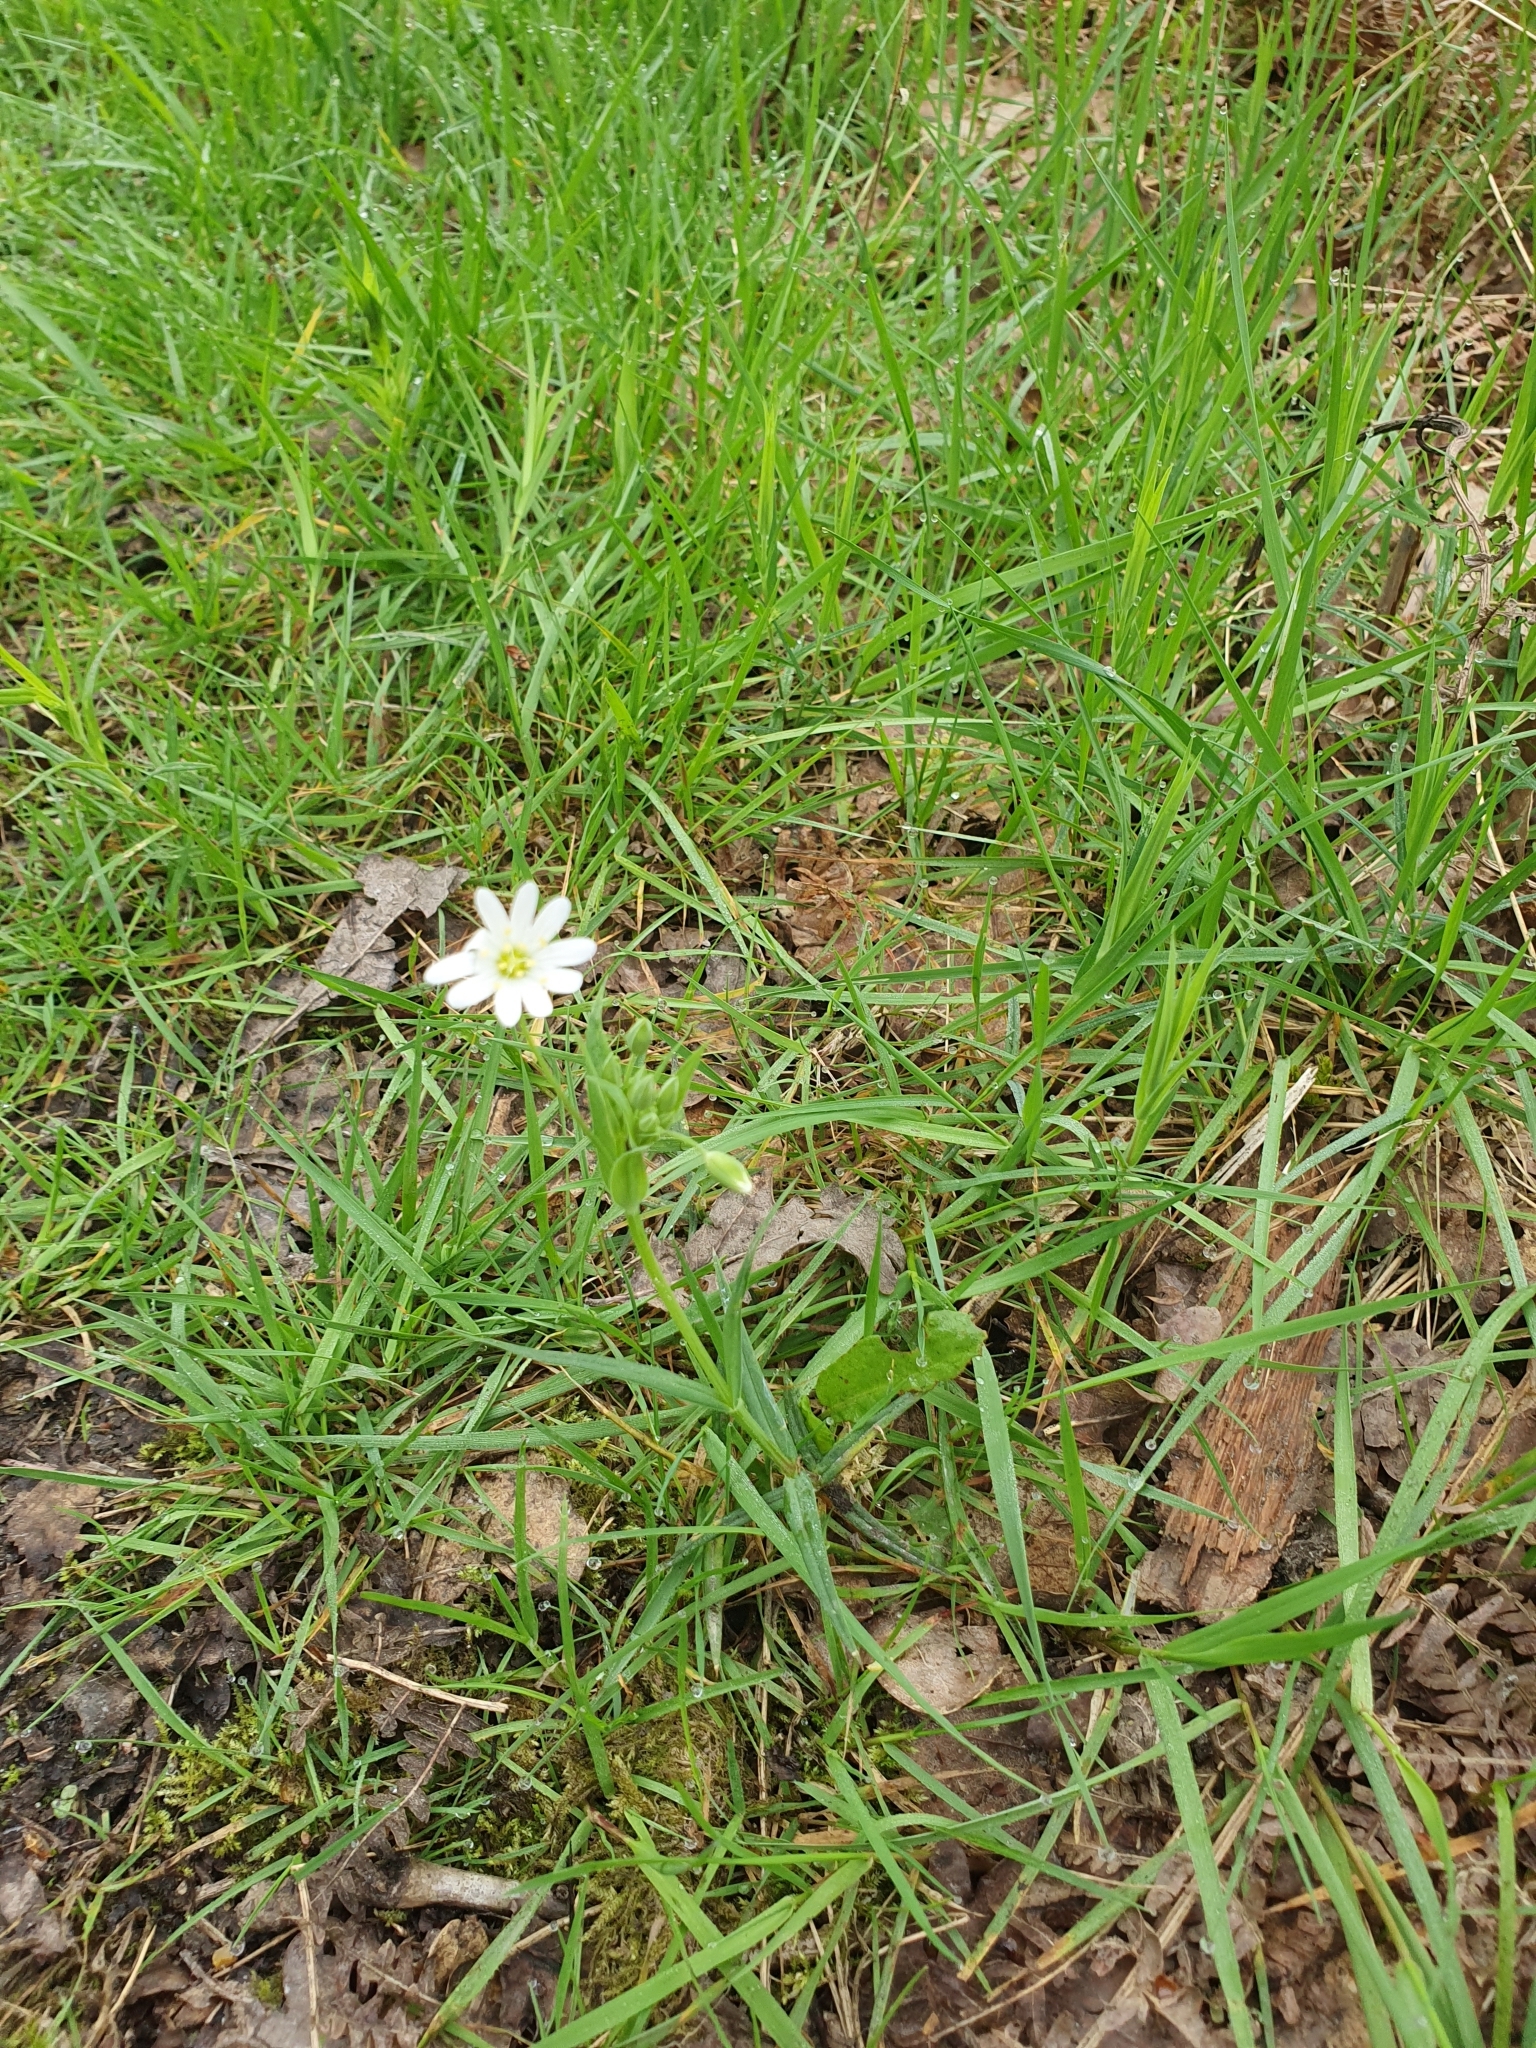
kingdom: Plantae
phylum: Tracheophyta
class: Magnoliopsida
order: Caryophyllales
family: Caryophyllaceae
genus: Rabelera
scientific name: Rabelera holostea
